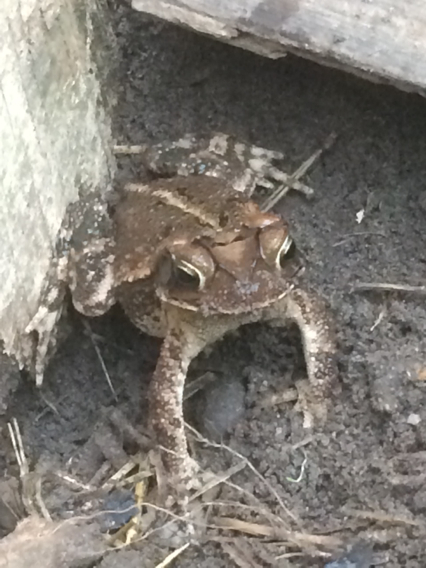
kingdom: Animalia
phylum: Chordata
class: Amphibia
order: Anura
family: Bufonidae
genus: Incilius
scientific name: Incilius nebulifer
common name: Gulf coast toad
